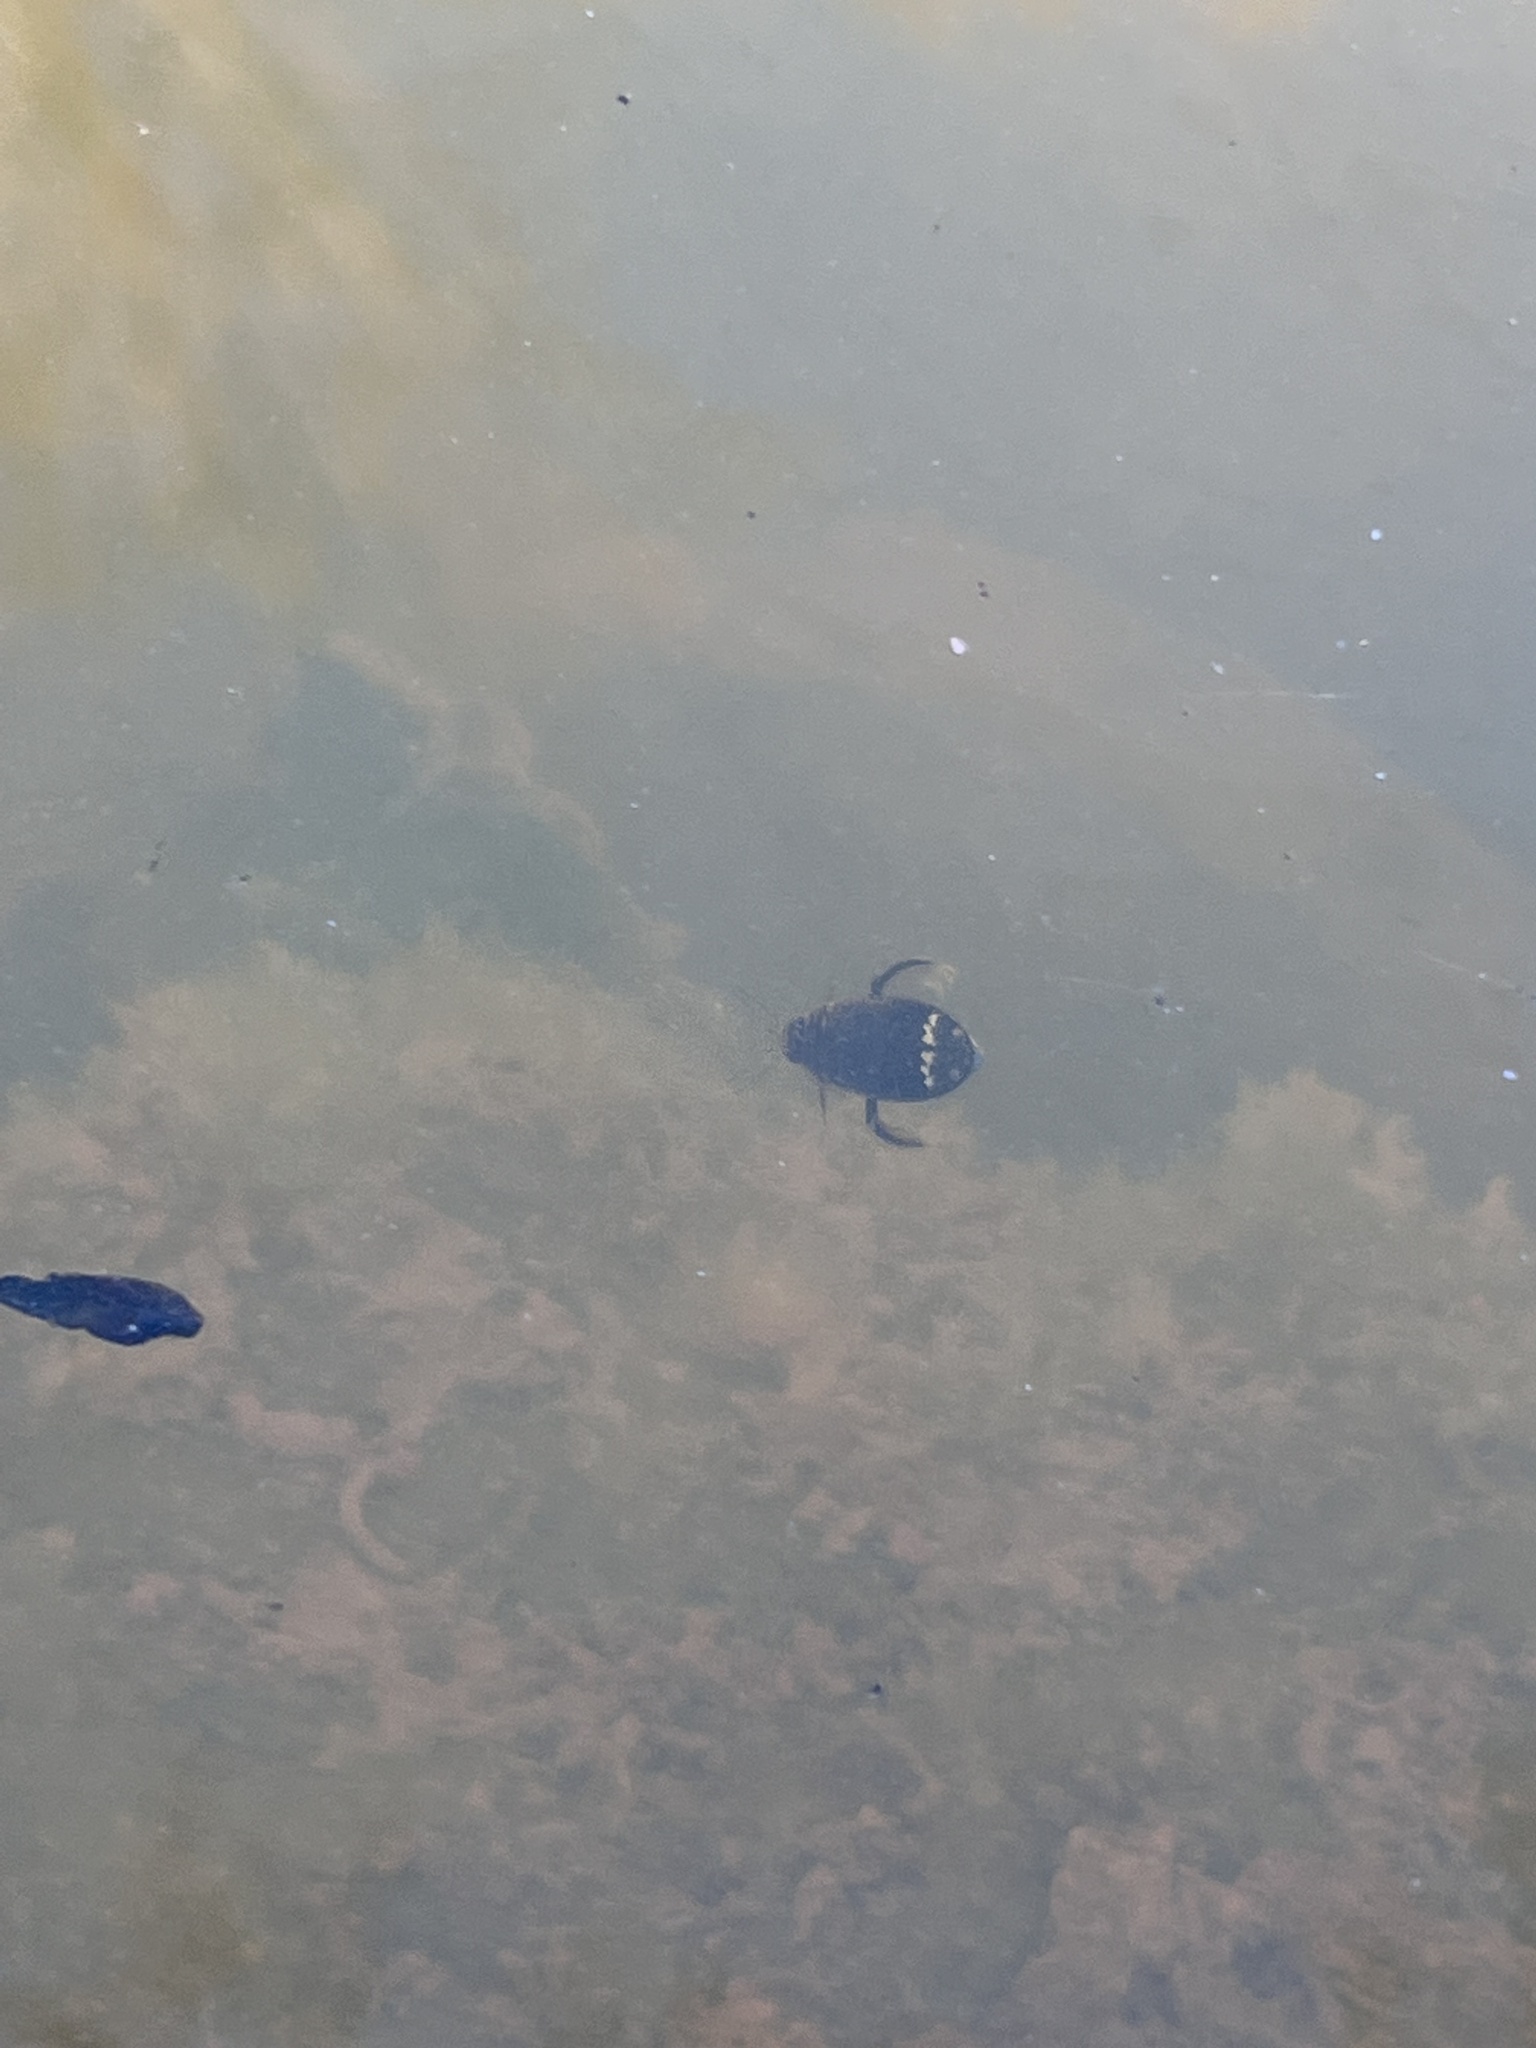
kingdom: Animalia
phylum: Arthropoda
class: Insecta
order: Coleoptera
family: Dytiscidae
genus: Acilius
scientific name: Acilius mediatus
